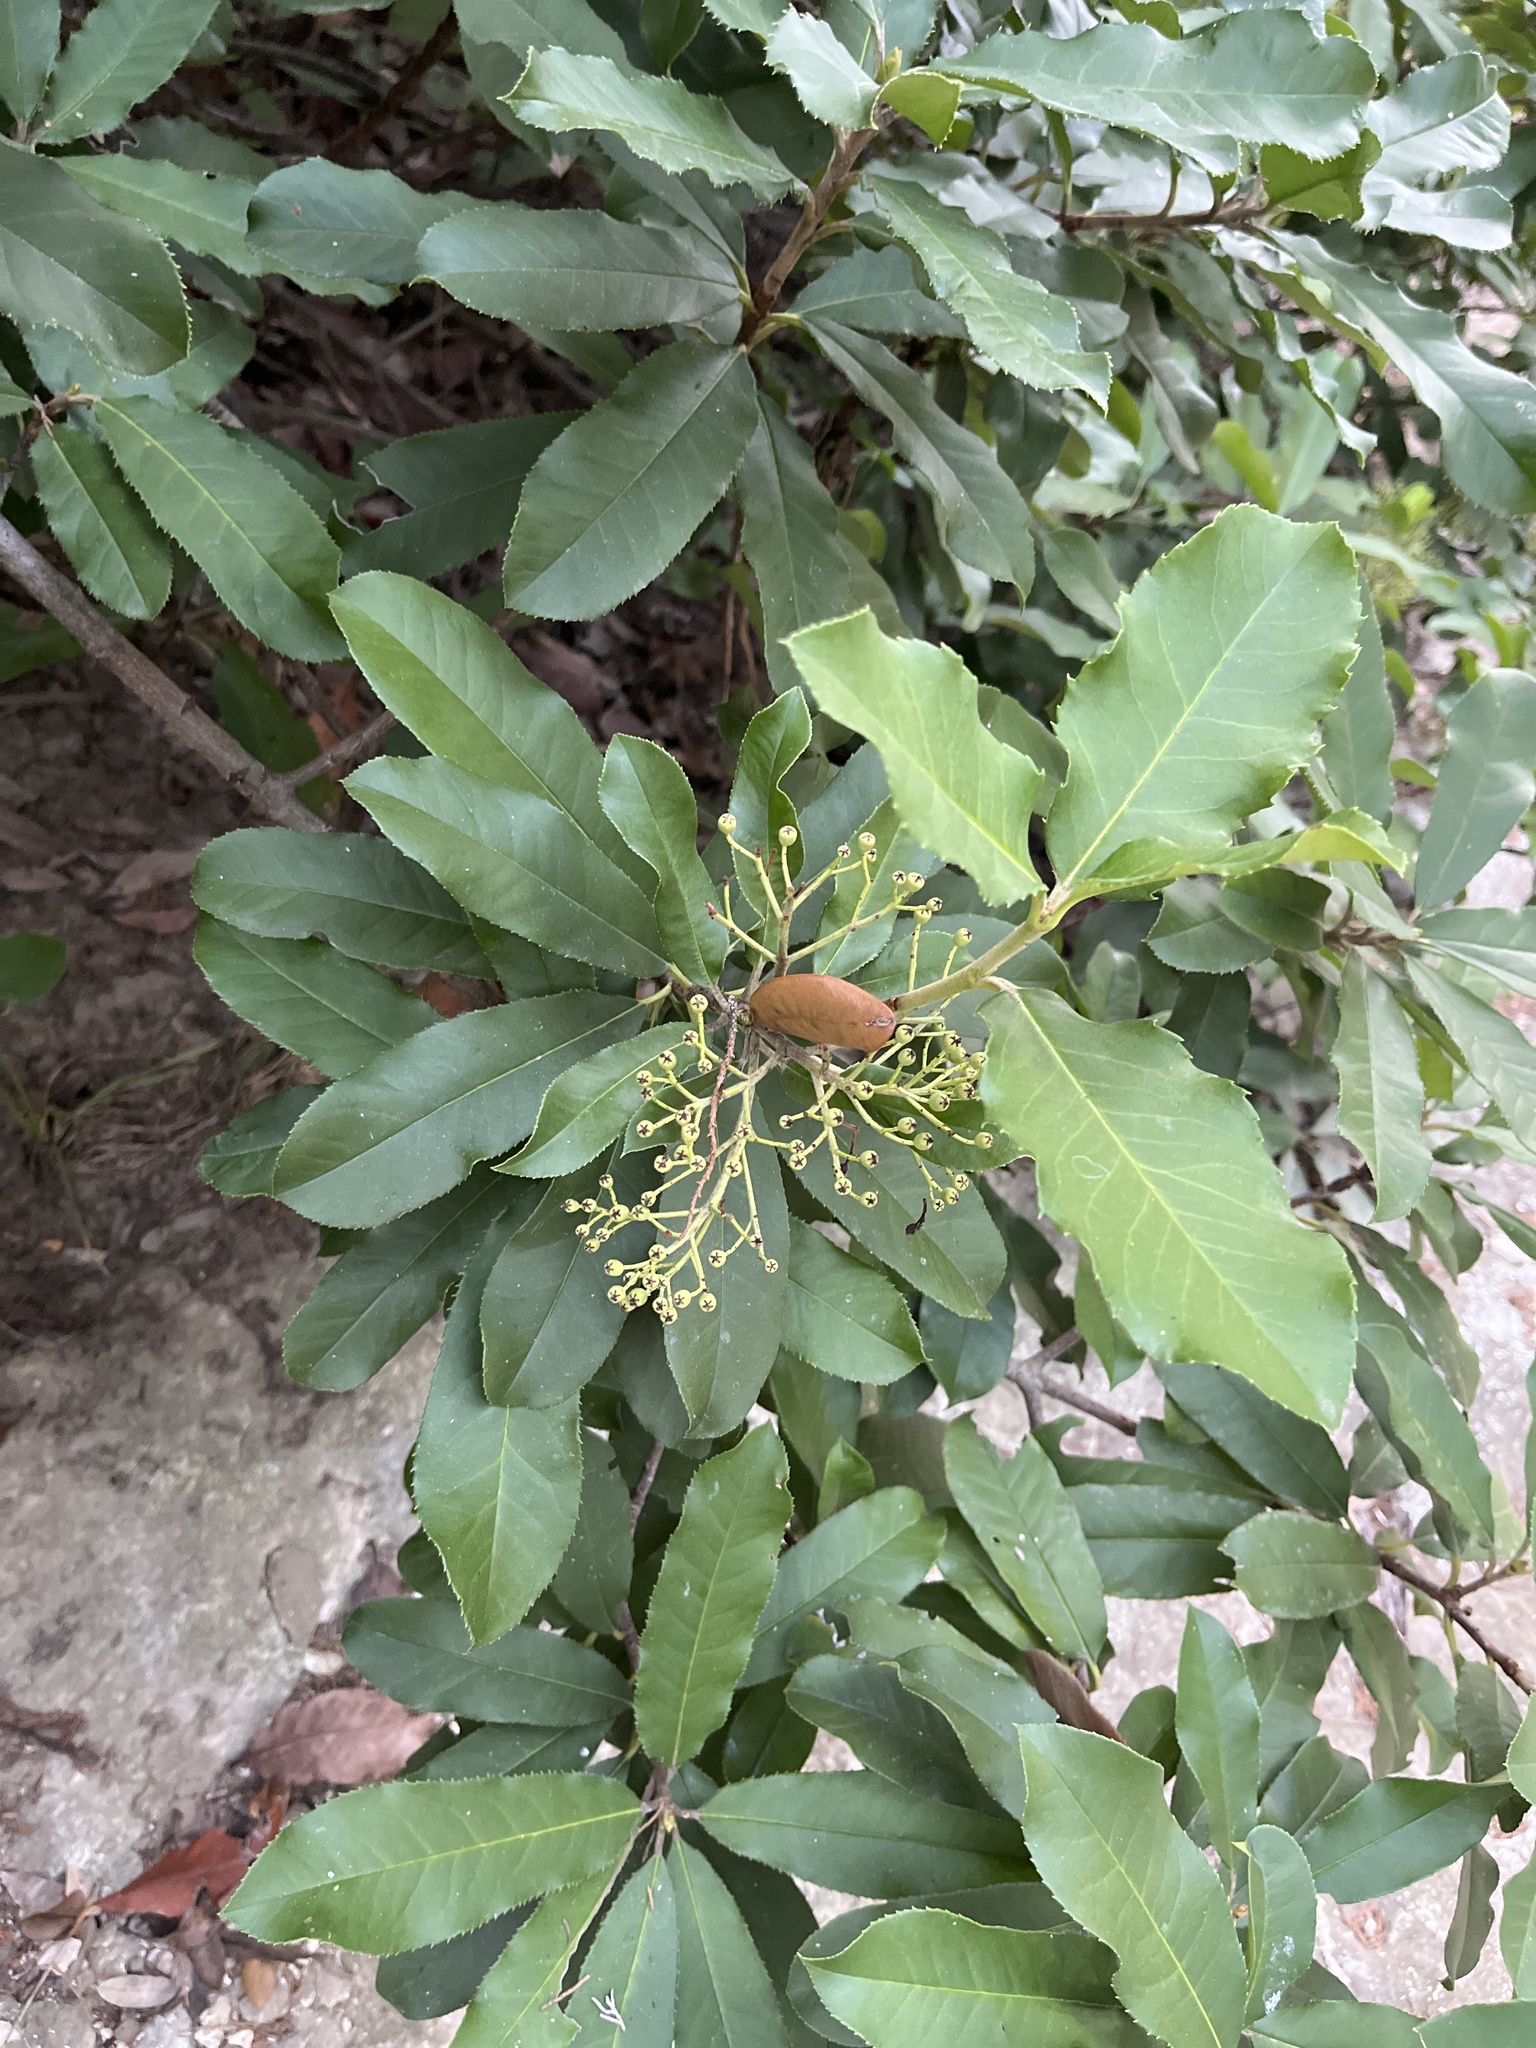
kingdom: Plantae
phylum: Tracheophyta
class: Magnoliopsida
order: Rosales
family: Rosaceae
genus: Photinia
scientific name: Photinia serratifolia
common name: Taiwanese photinia
